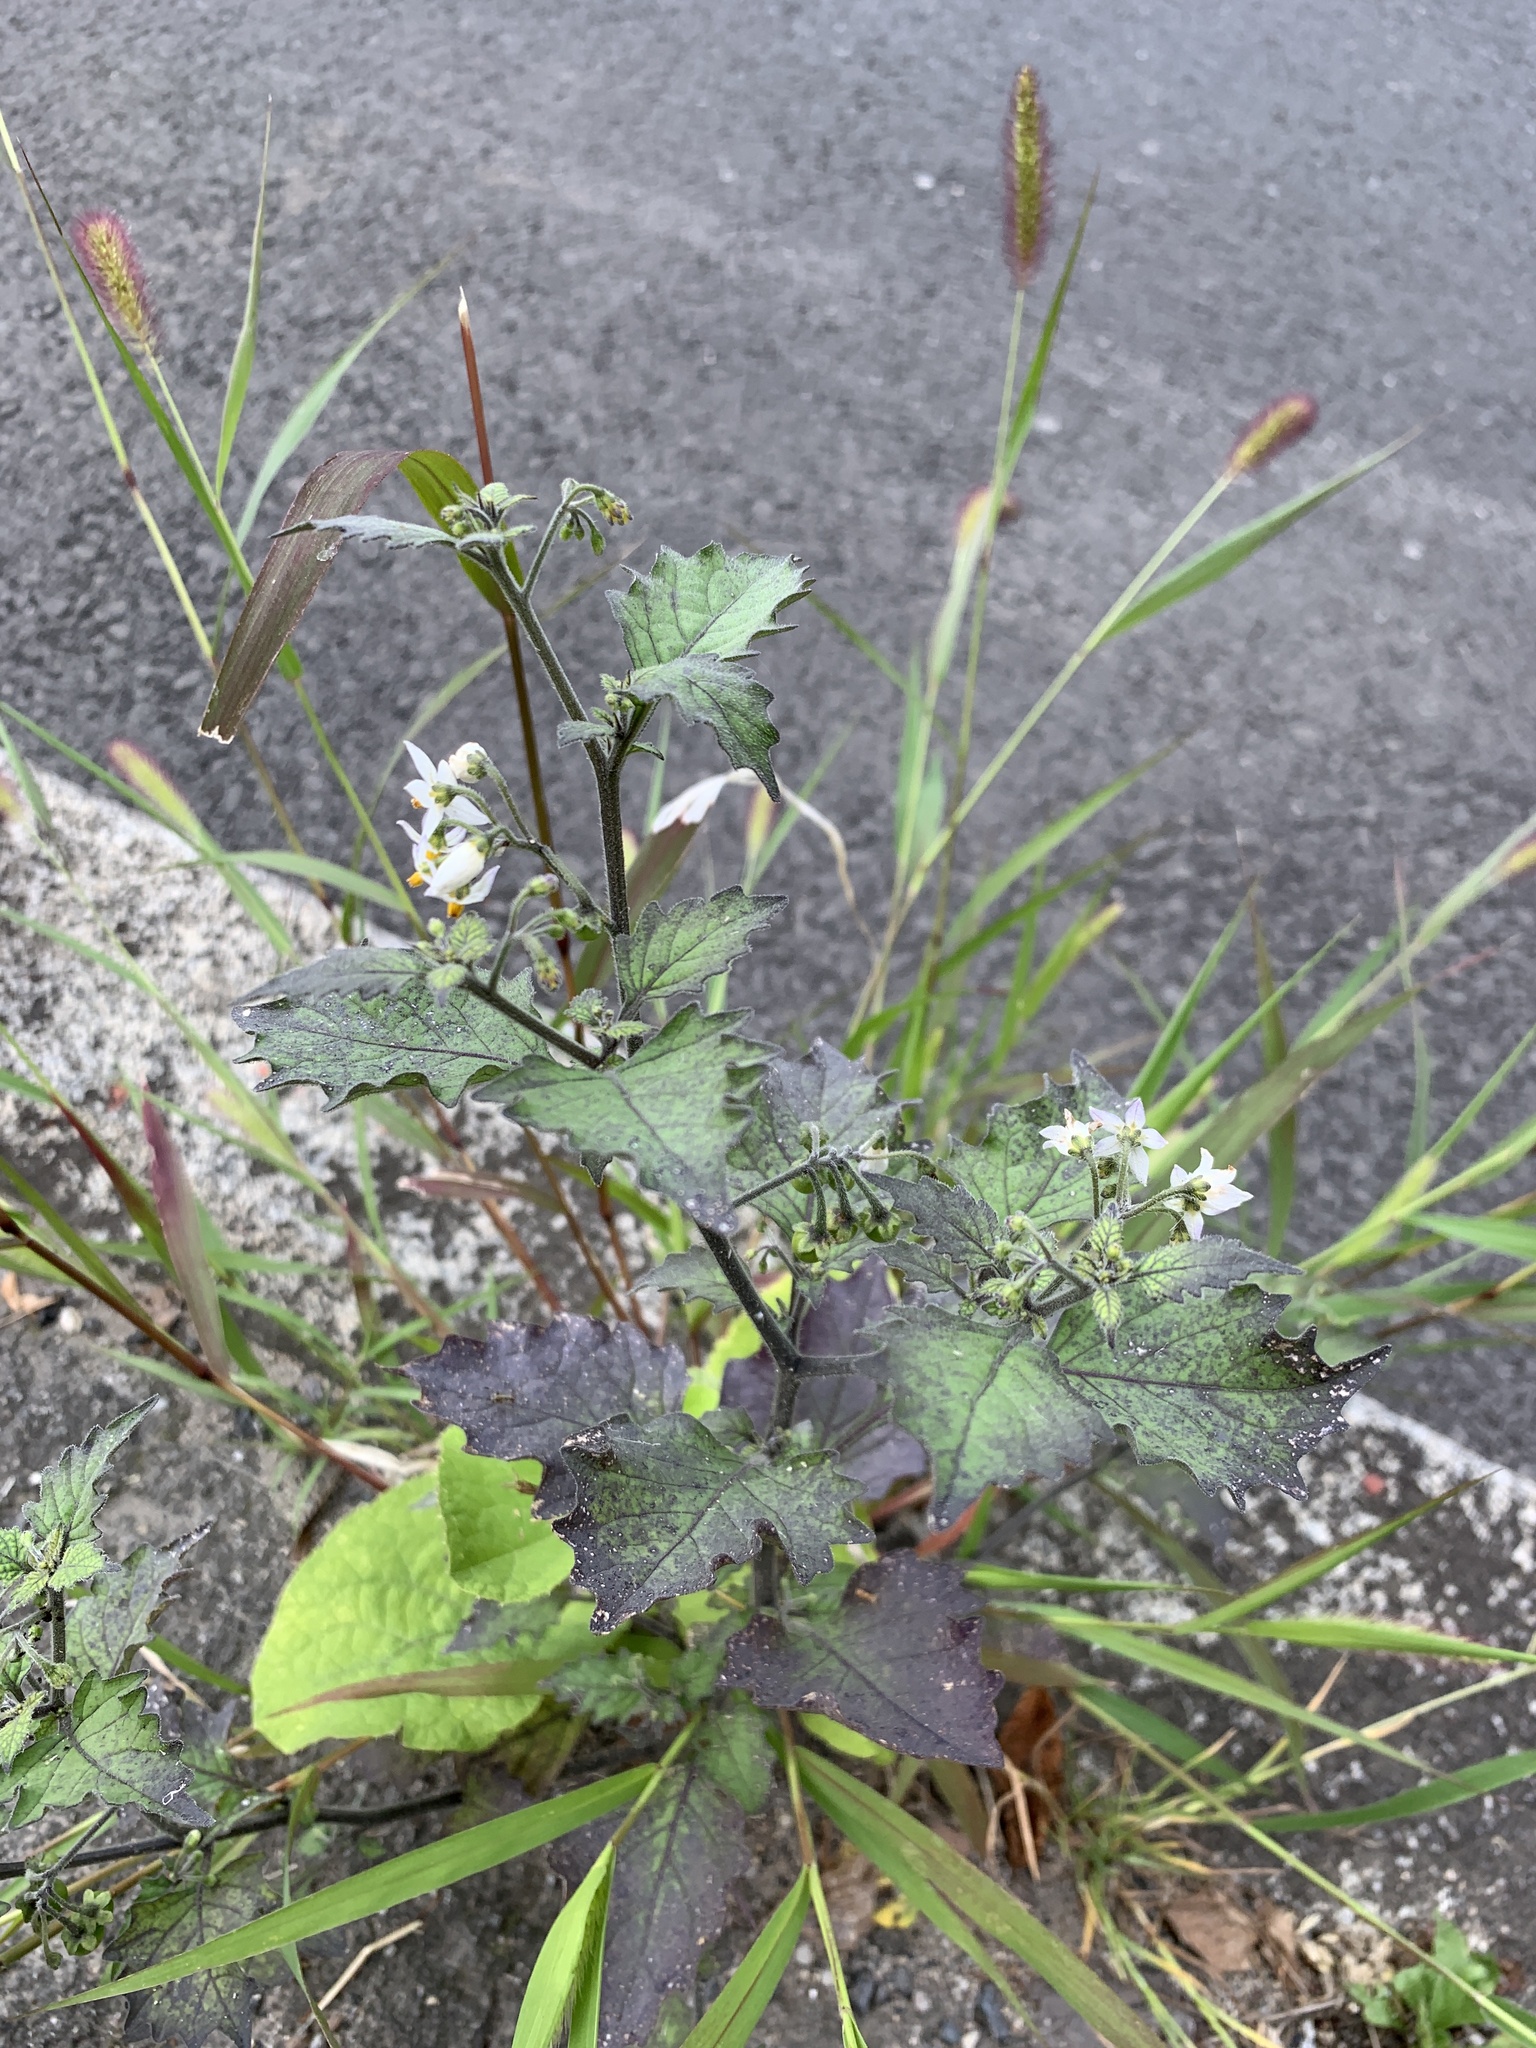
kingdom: Plantae
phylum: Tracheophyta
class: Magnoliopsida
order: Solanales
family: Solanaceae
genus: Solanum
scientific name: Solanum nigrum
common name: Black nightshade
